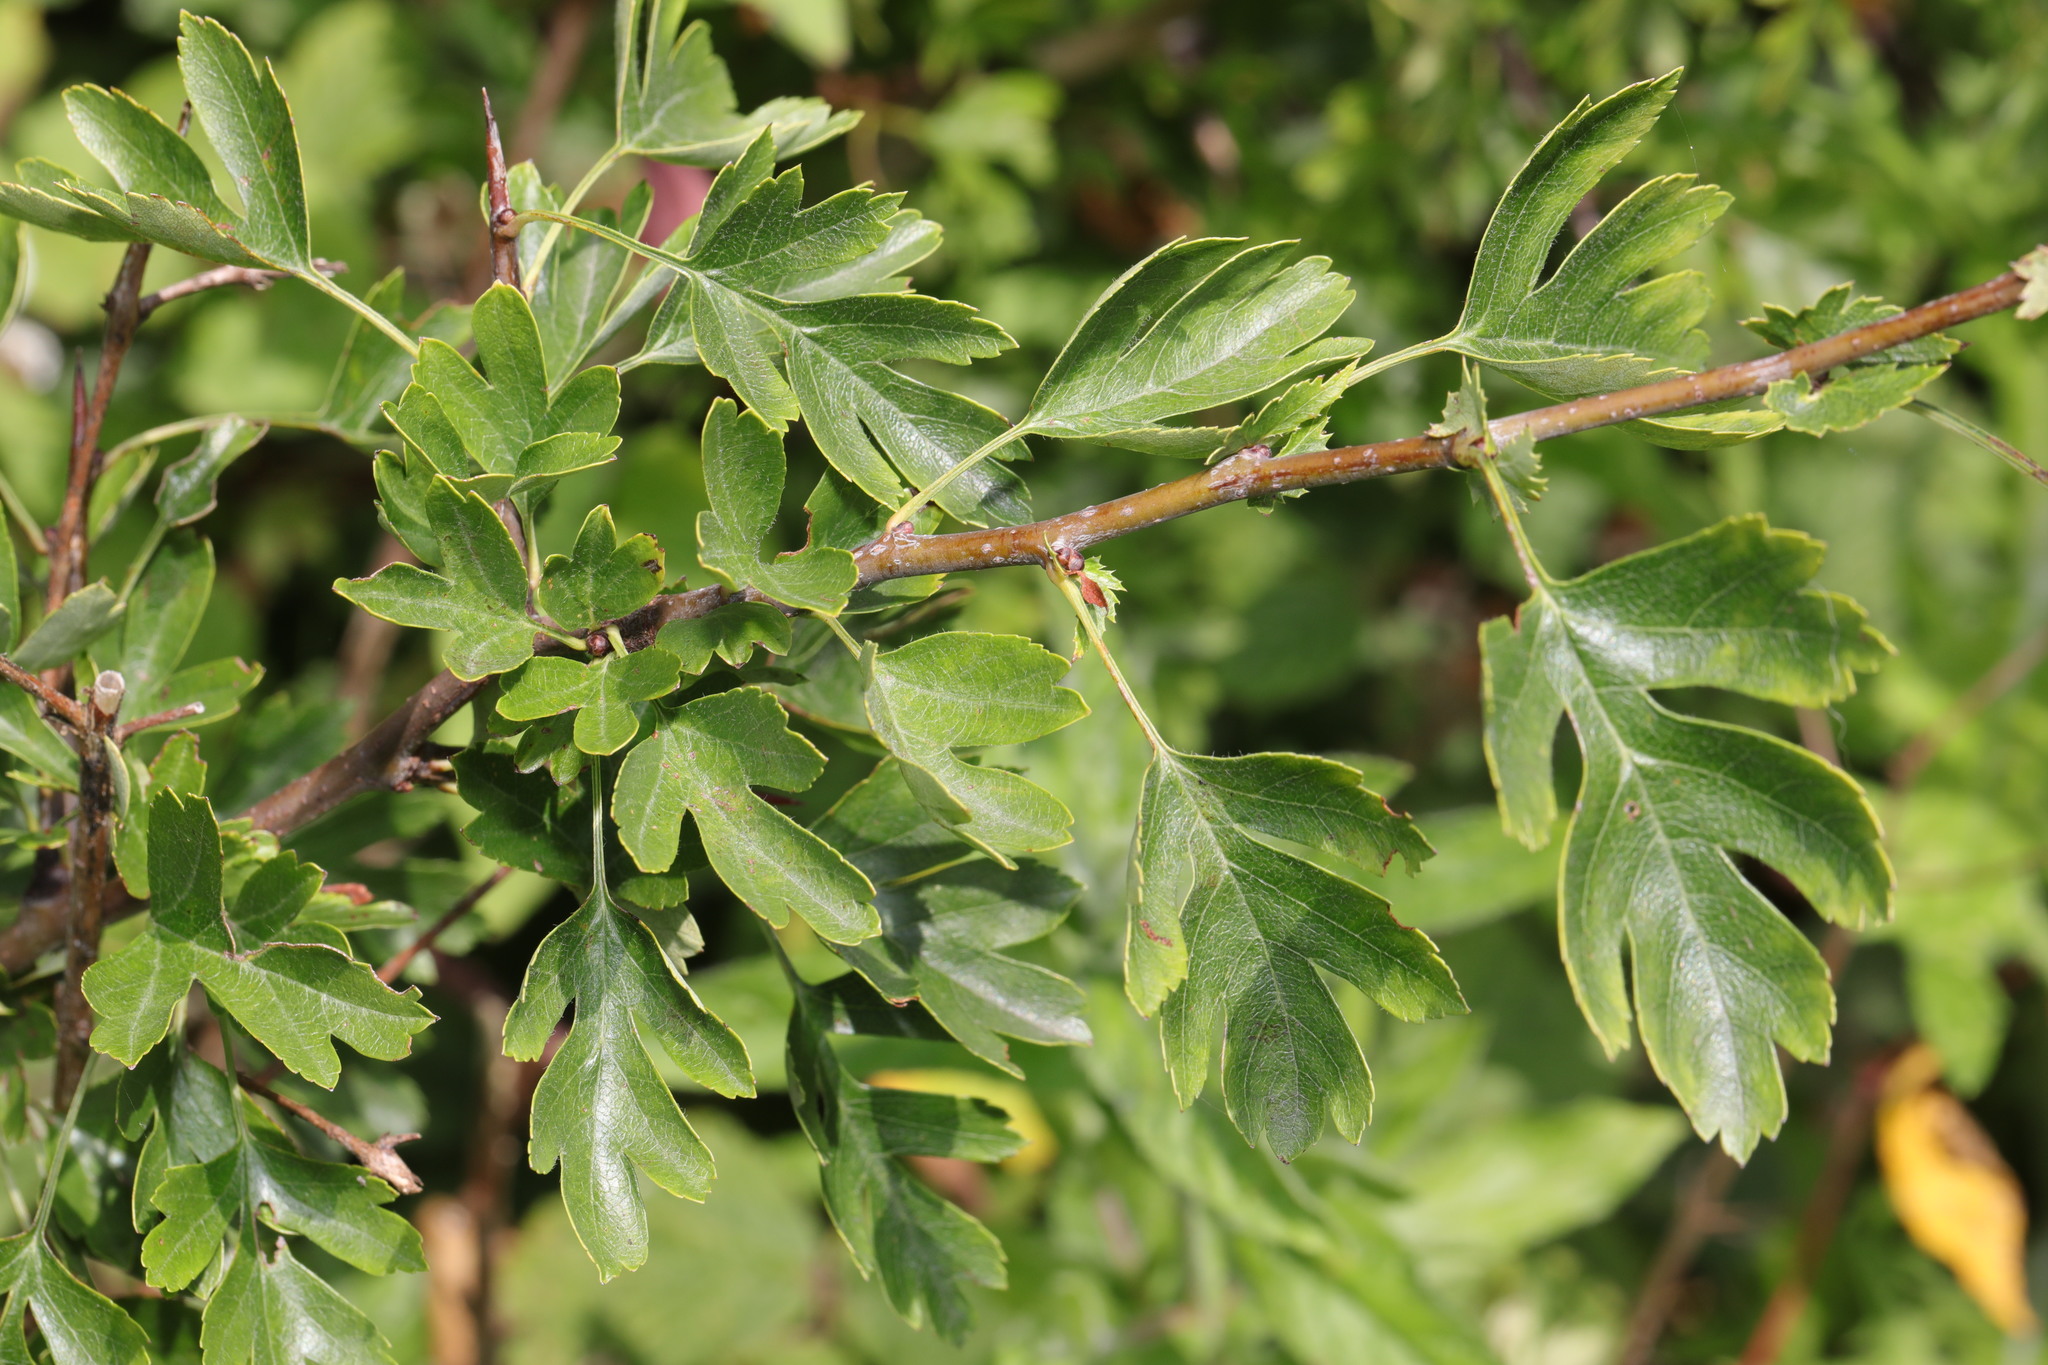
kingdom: Plantae
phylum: Tracheophyta
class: Magnoliopsida
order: Rosales
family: Rosaceae
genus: Crataegus
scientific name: Crataegus monogyna
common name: Hawthorn
